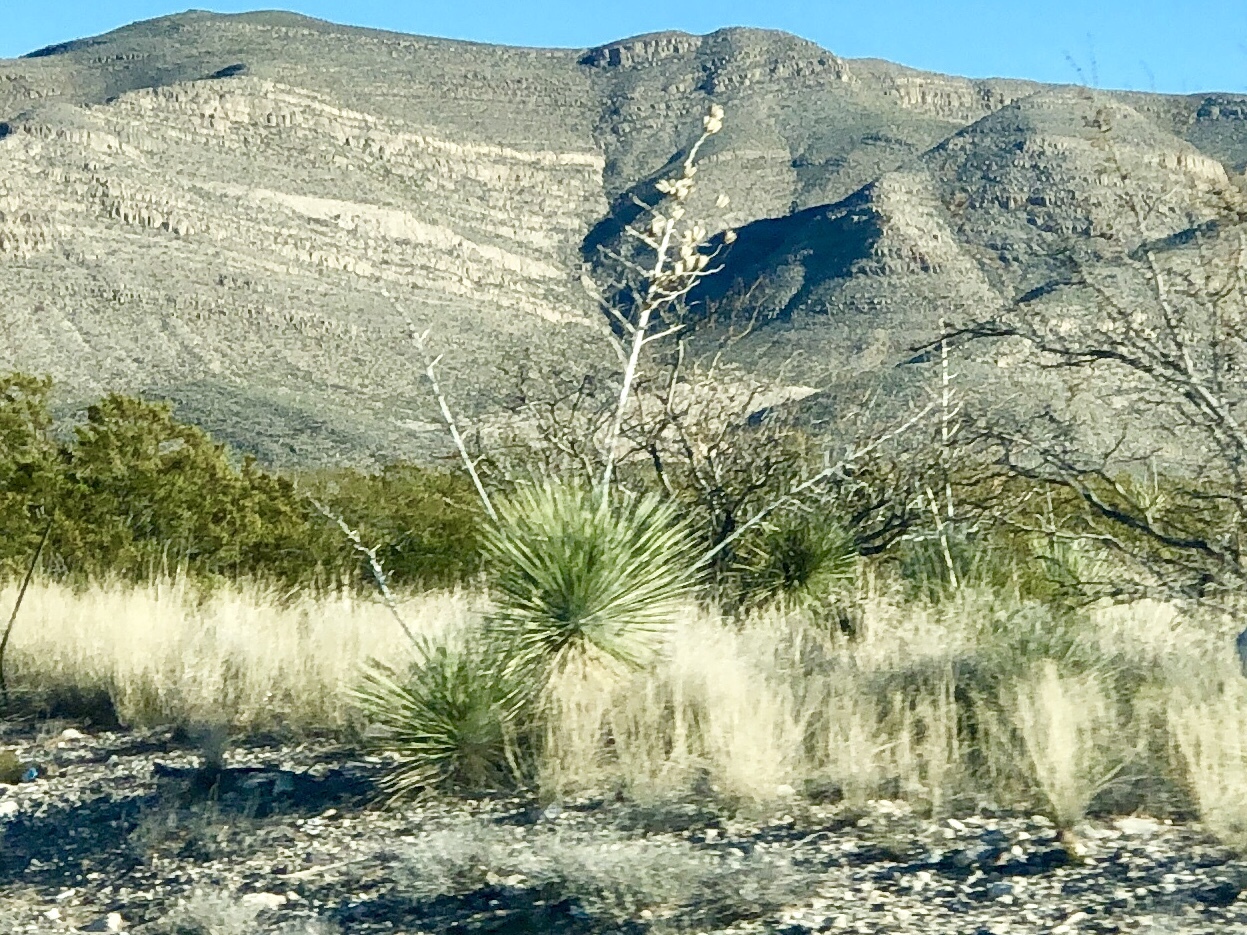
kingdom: Plantae
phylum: Tracheophyta
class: Liliopsida
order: Asparagales
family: Asparagaceae
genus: Yucca
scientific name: Yucca elata
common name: Palmella
